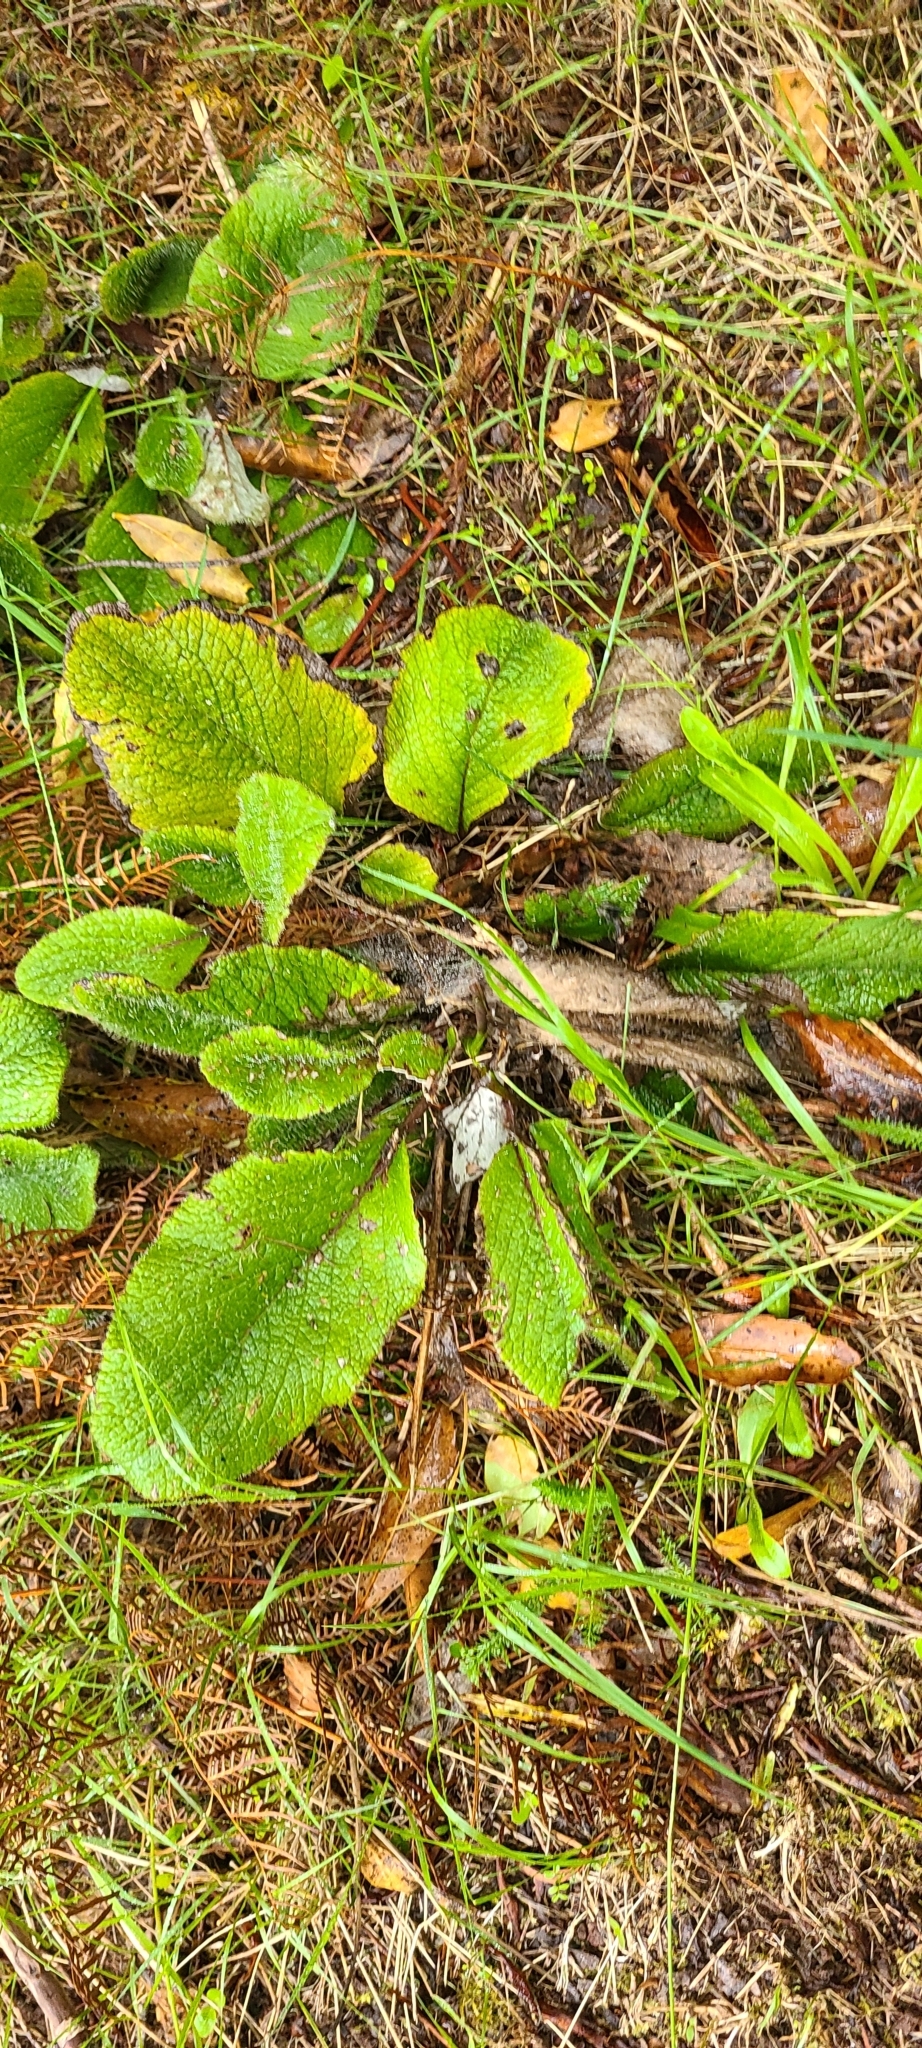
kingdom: Plantae
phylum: Tracheophyta
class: Magnoliopsida
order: Asterales
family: Asteraceae
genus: Brachyglottis
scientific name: Brachyglottis lagopus
